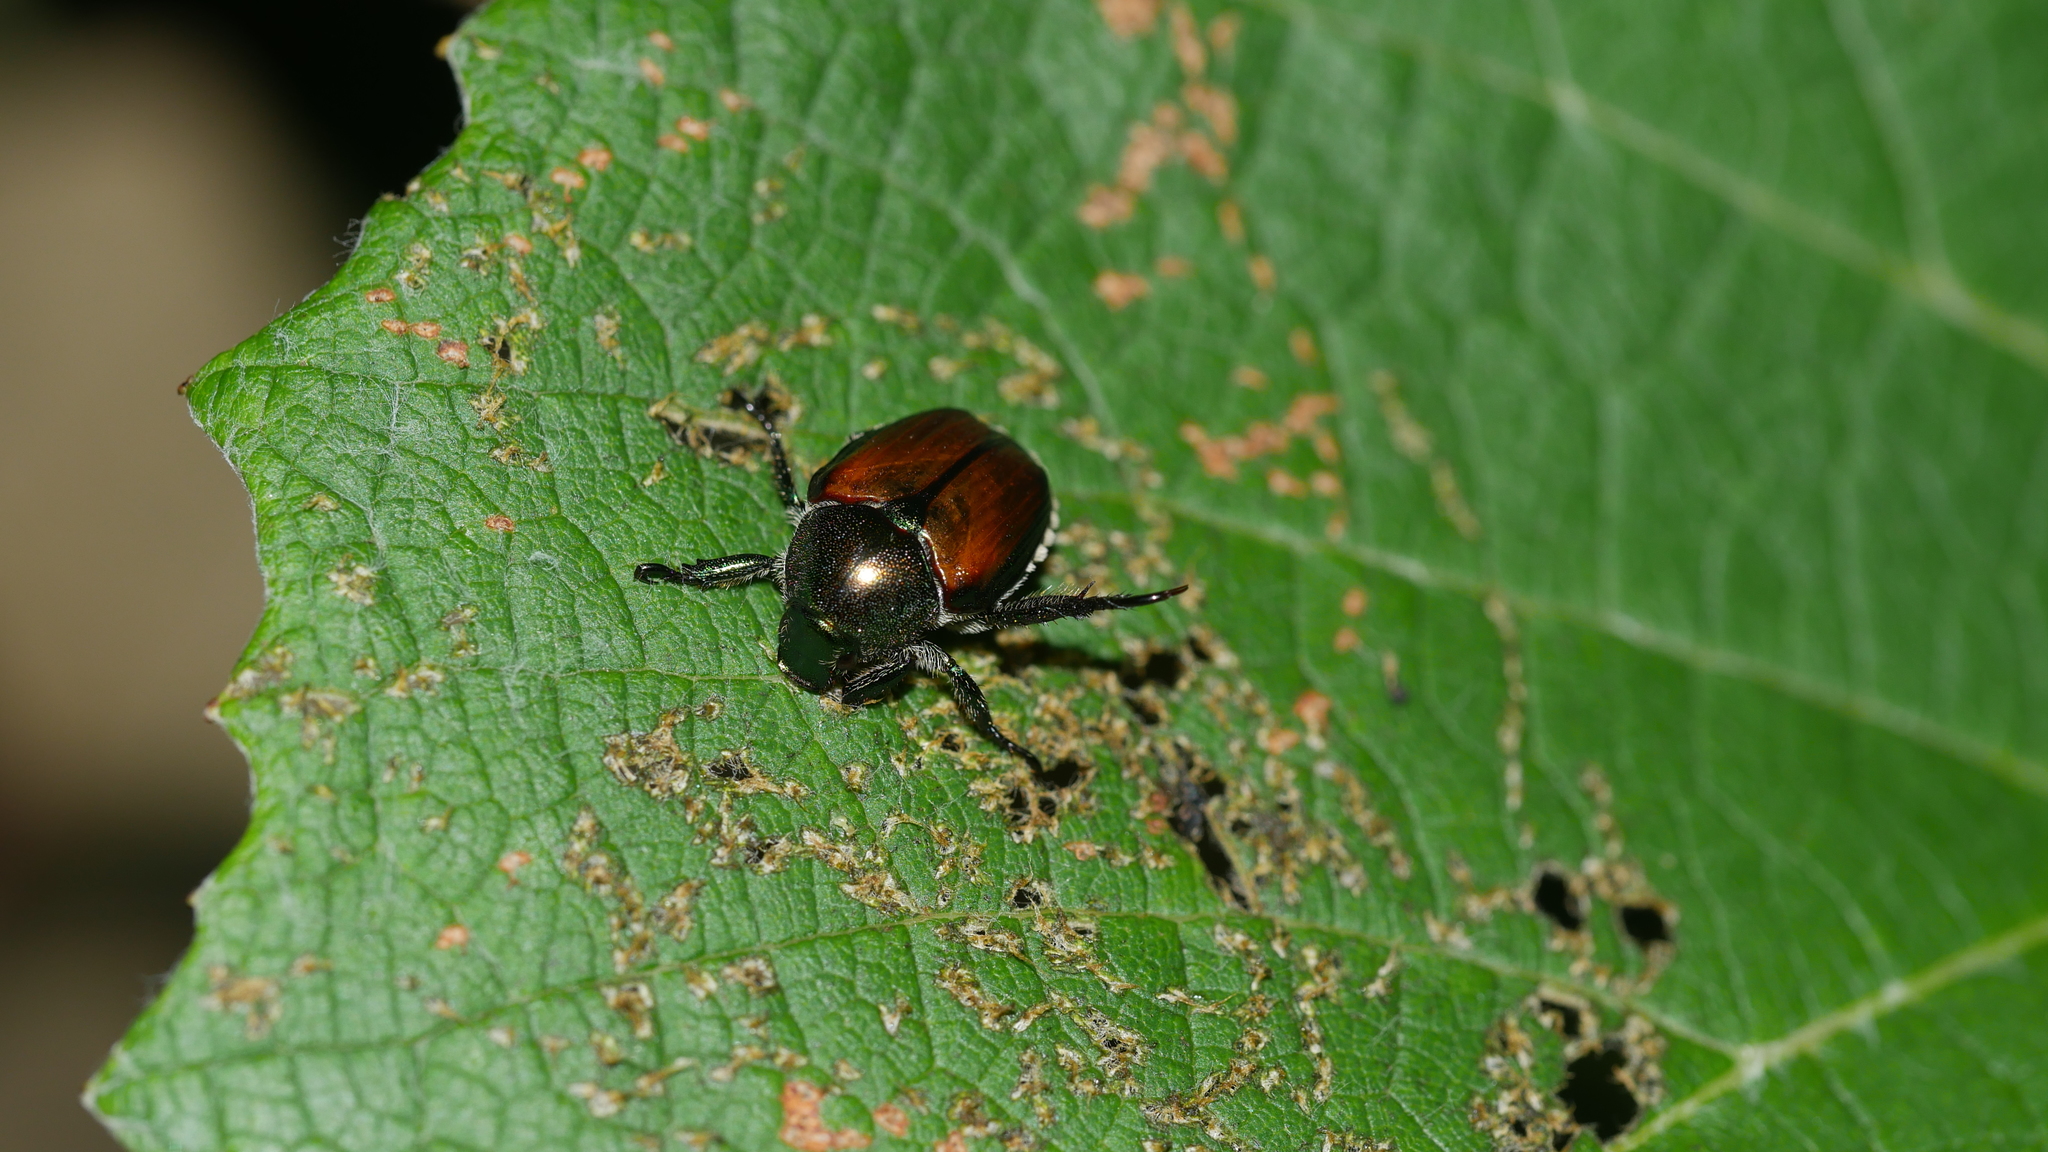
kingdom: Animalia
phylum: Arthropoda
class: Insecta
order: Coleoptera
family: Scarabaeidae
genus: Popillia
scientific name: Popillia japonica
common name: Japanese beetle
